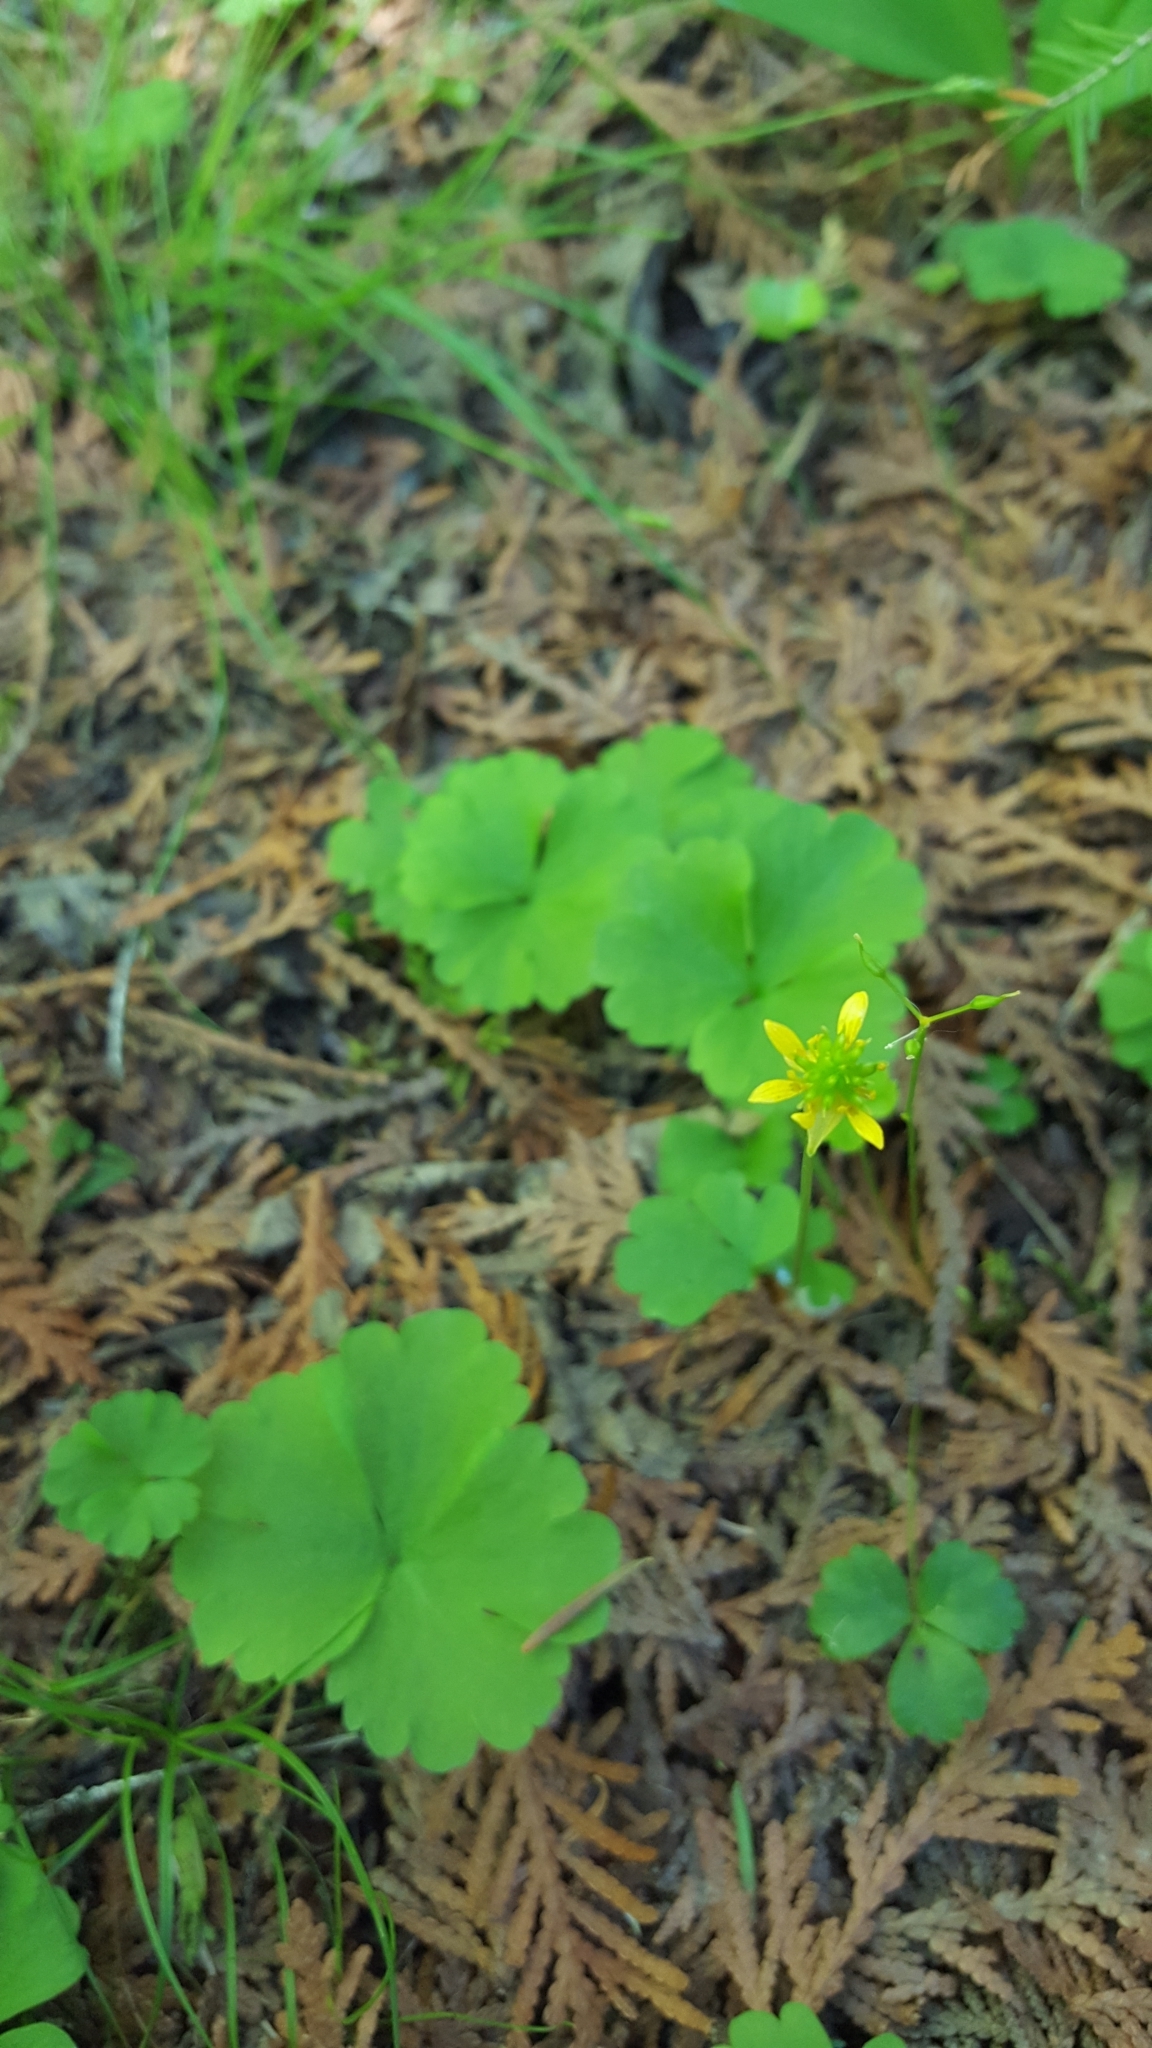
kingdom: Plantae
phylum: Tracheophyta
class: Magnoliopsida
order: Ranunculales
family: Ranunculaceae
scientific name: Ranunculaceae
